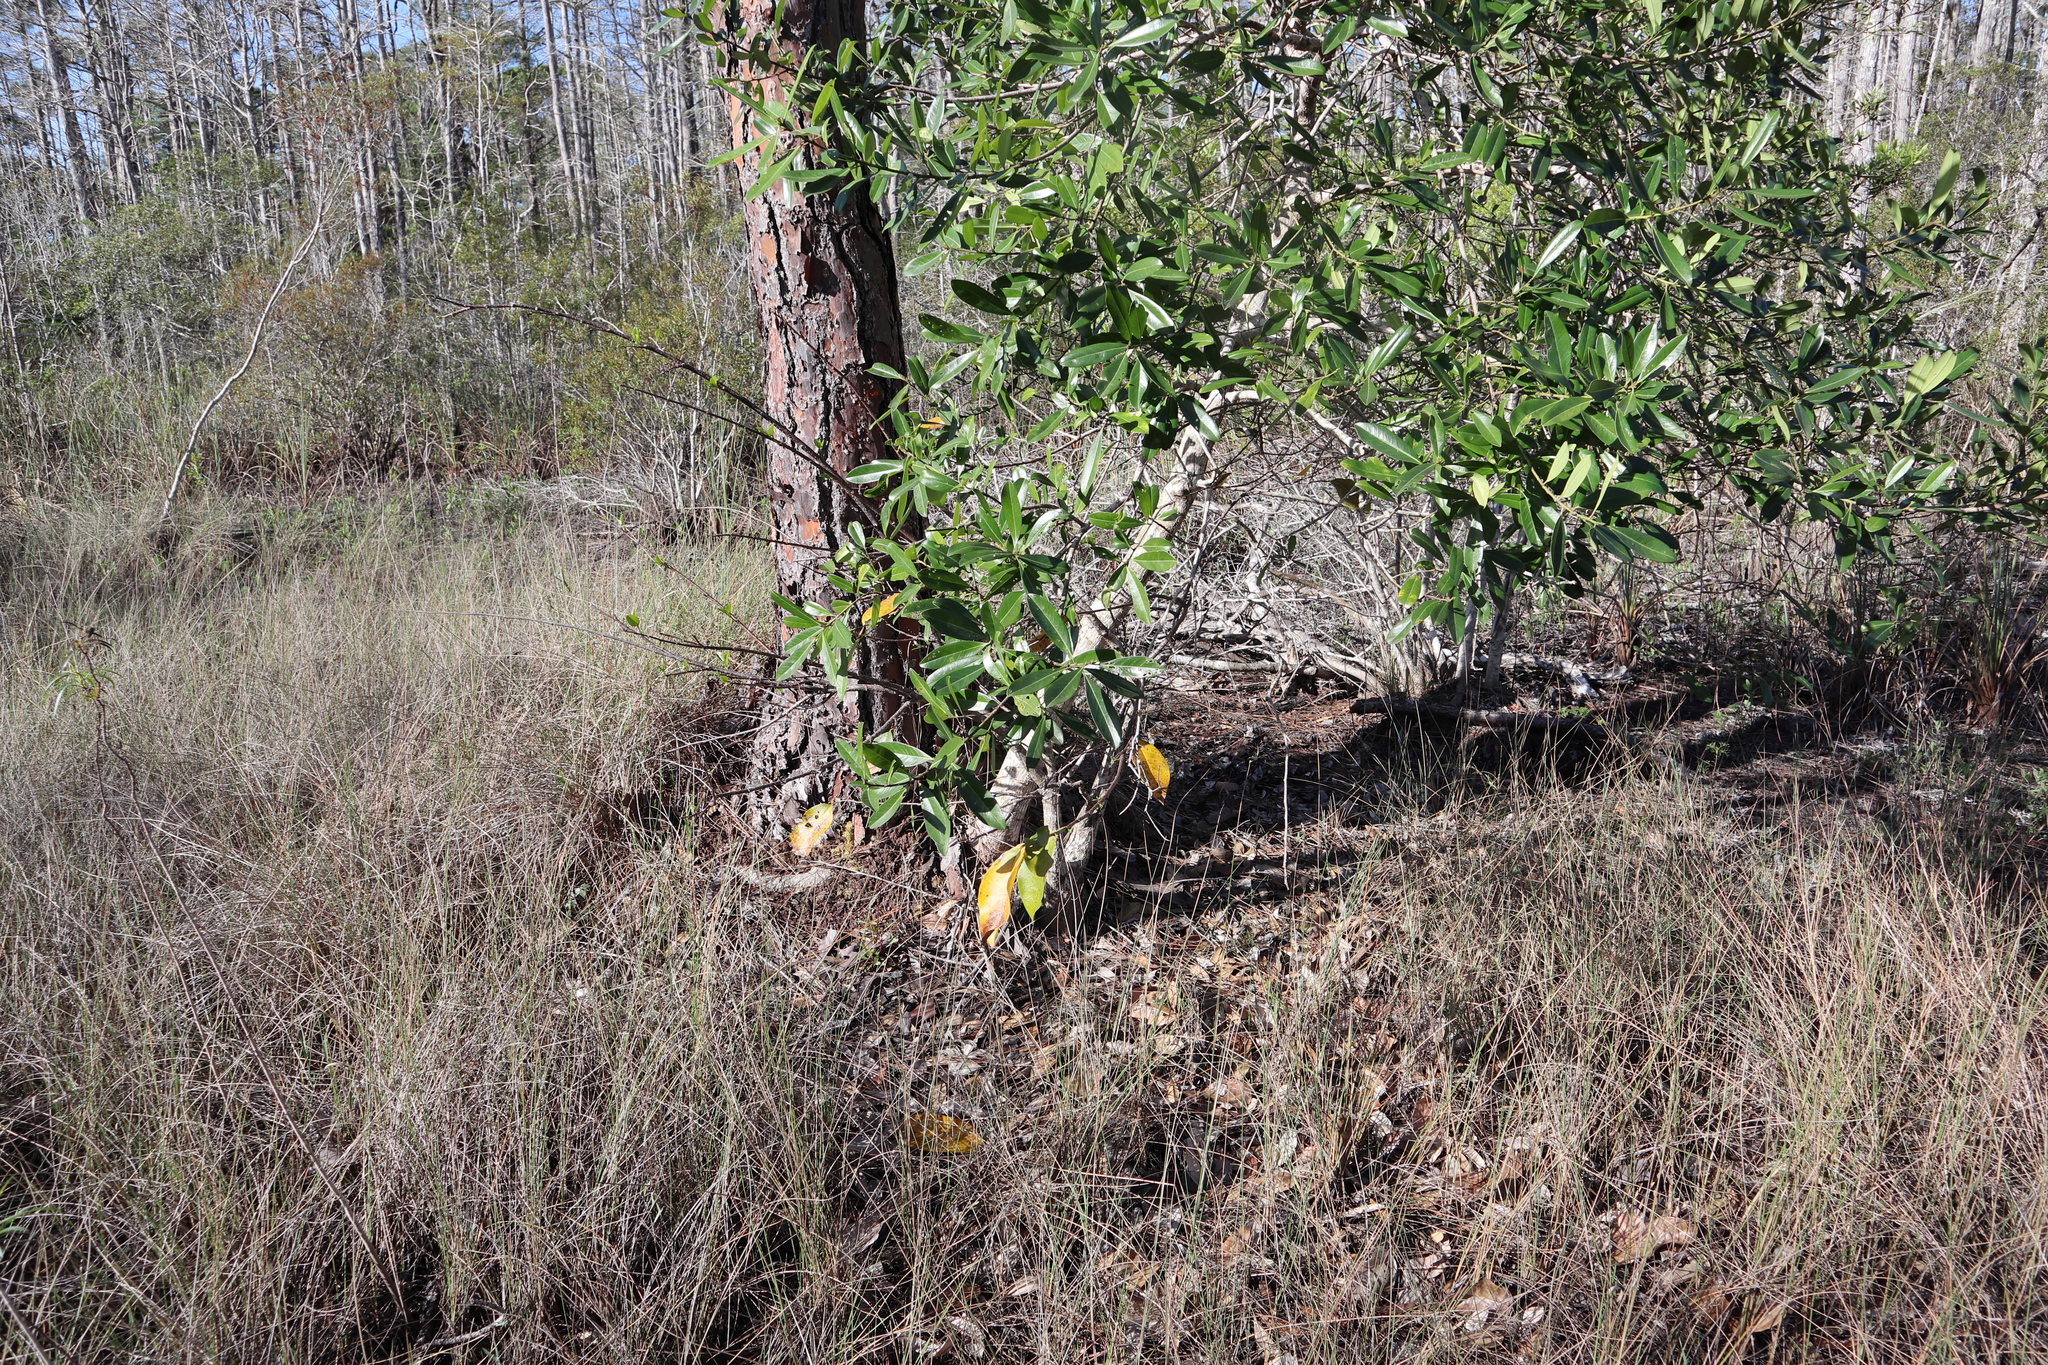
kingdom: Plantae
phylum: Tracheophyta
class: Magnoliopsida
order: Magnoliales
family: Annonaceae
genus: Annona
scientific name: Annona glabra
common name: Monkey apple
